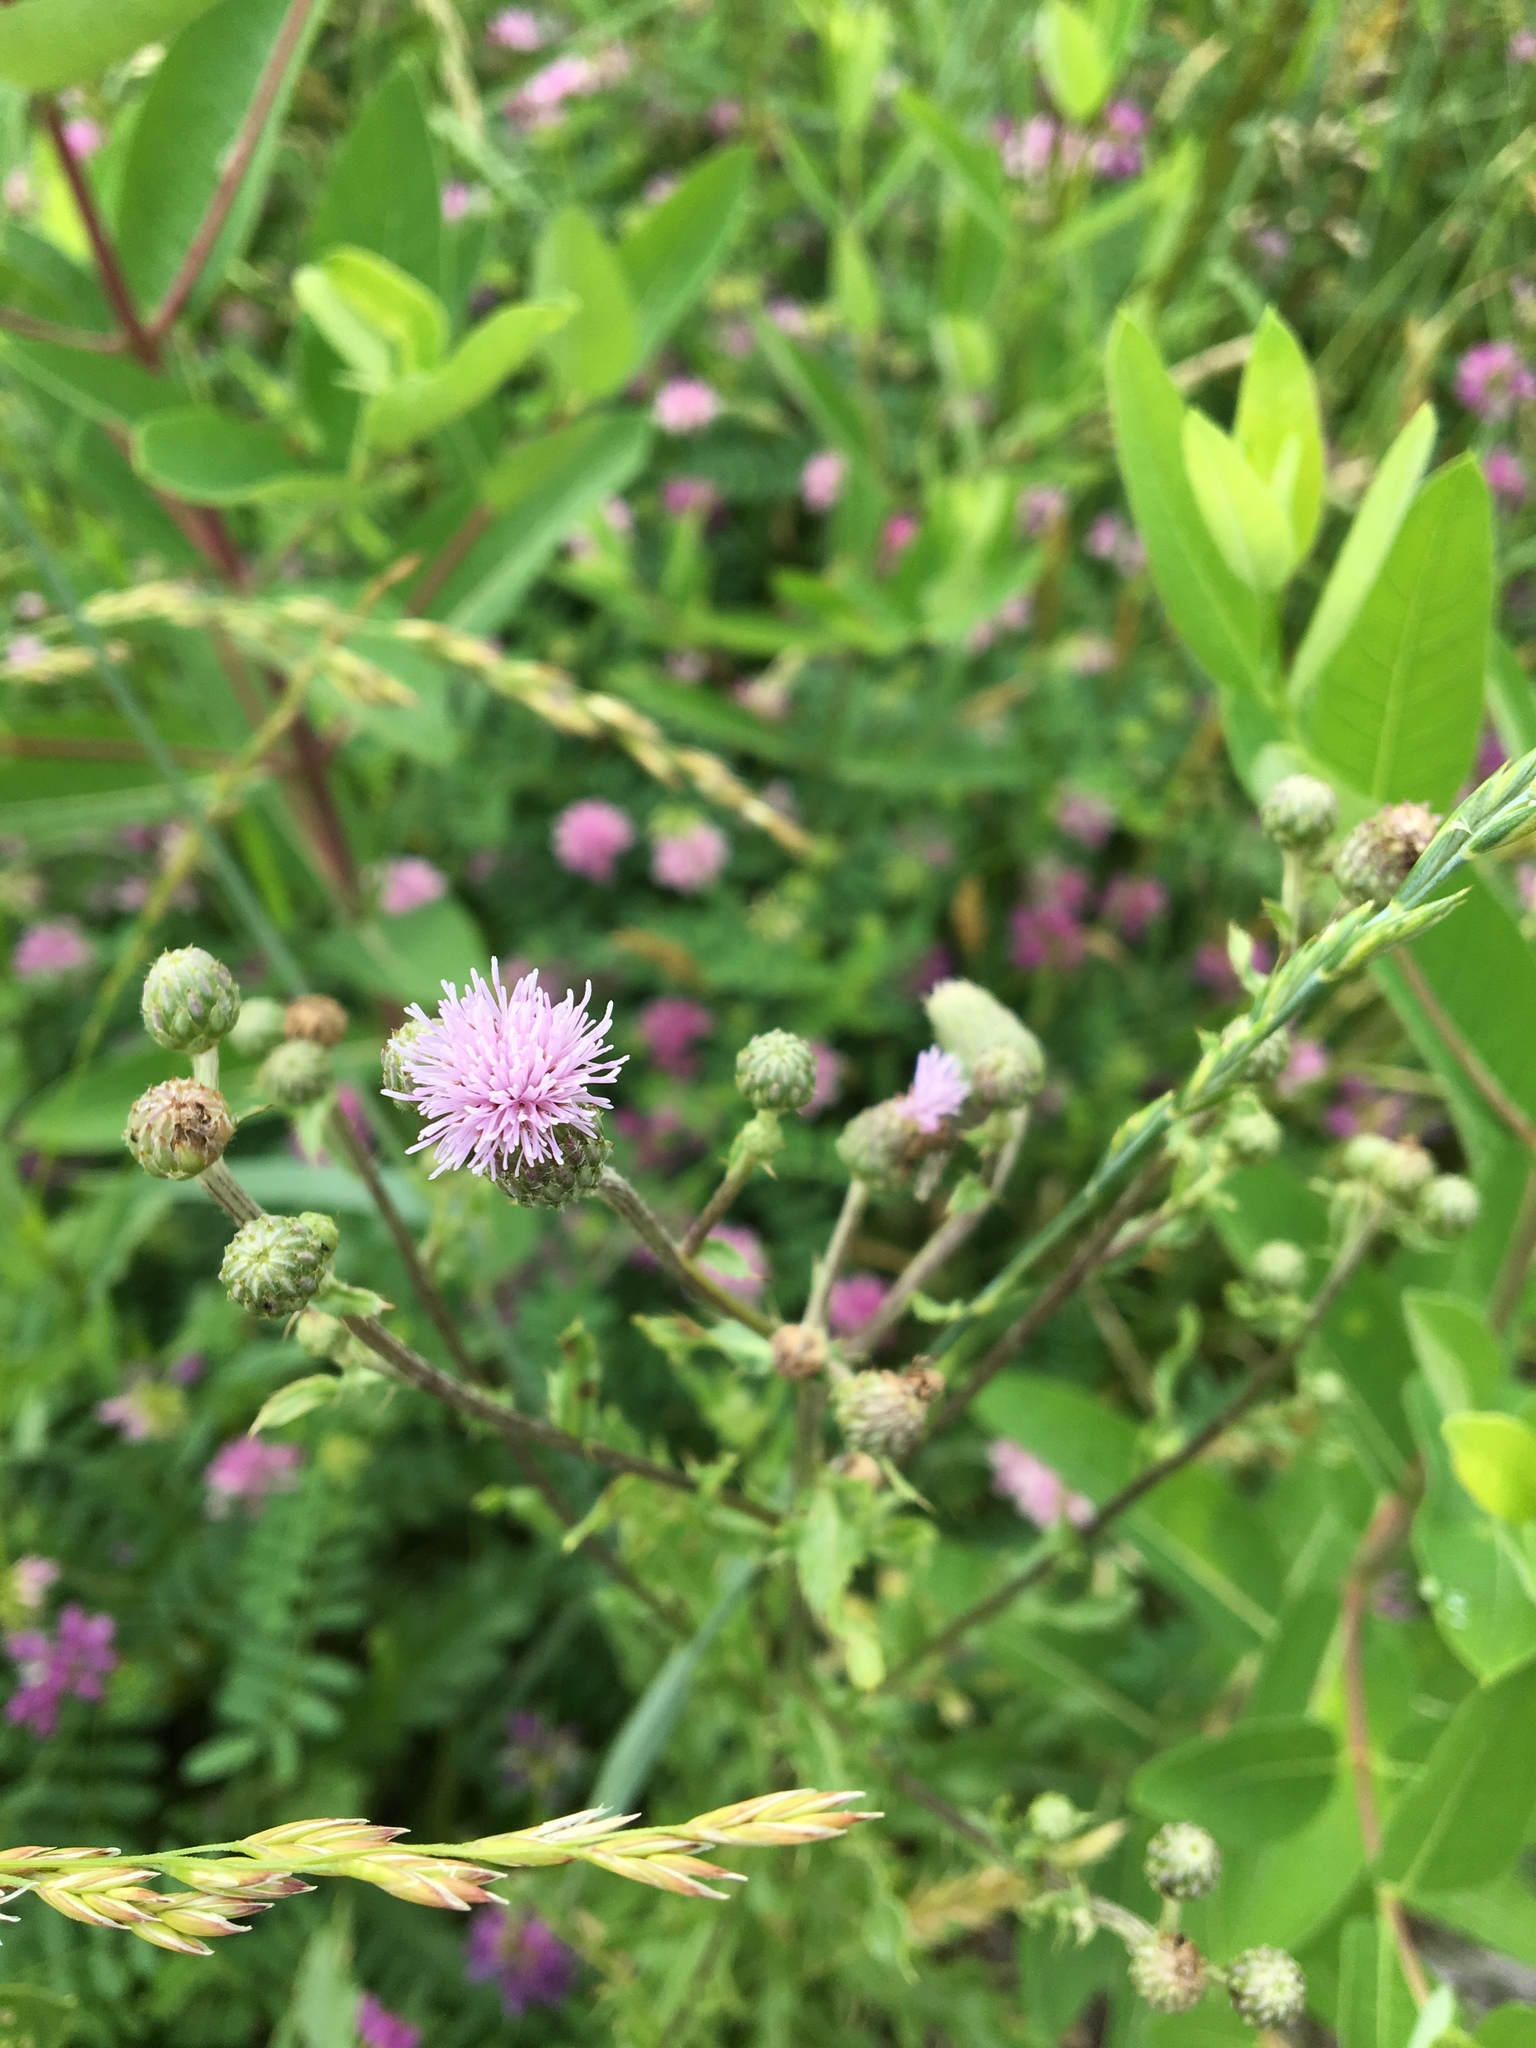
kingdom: Plantae
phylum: Tracheophyta
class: Magnoliopsida
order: Asterales
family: Asteraceae
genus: Cirsium
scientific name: Cirsium arvense
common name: Creeping thistle
